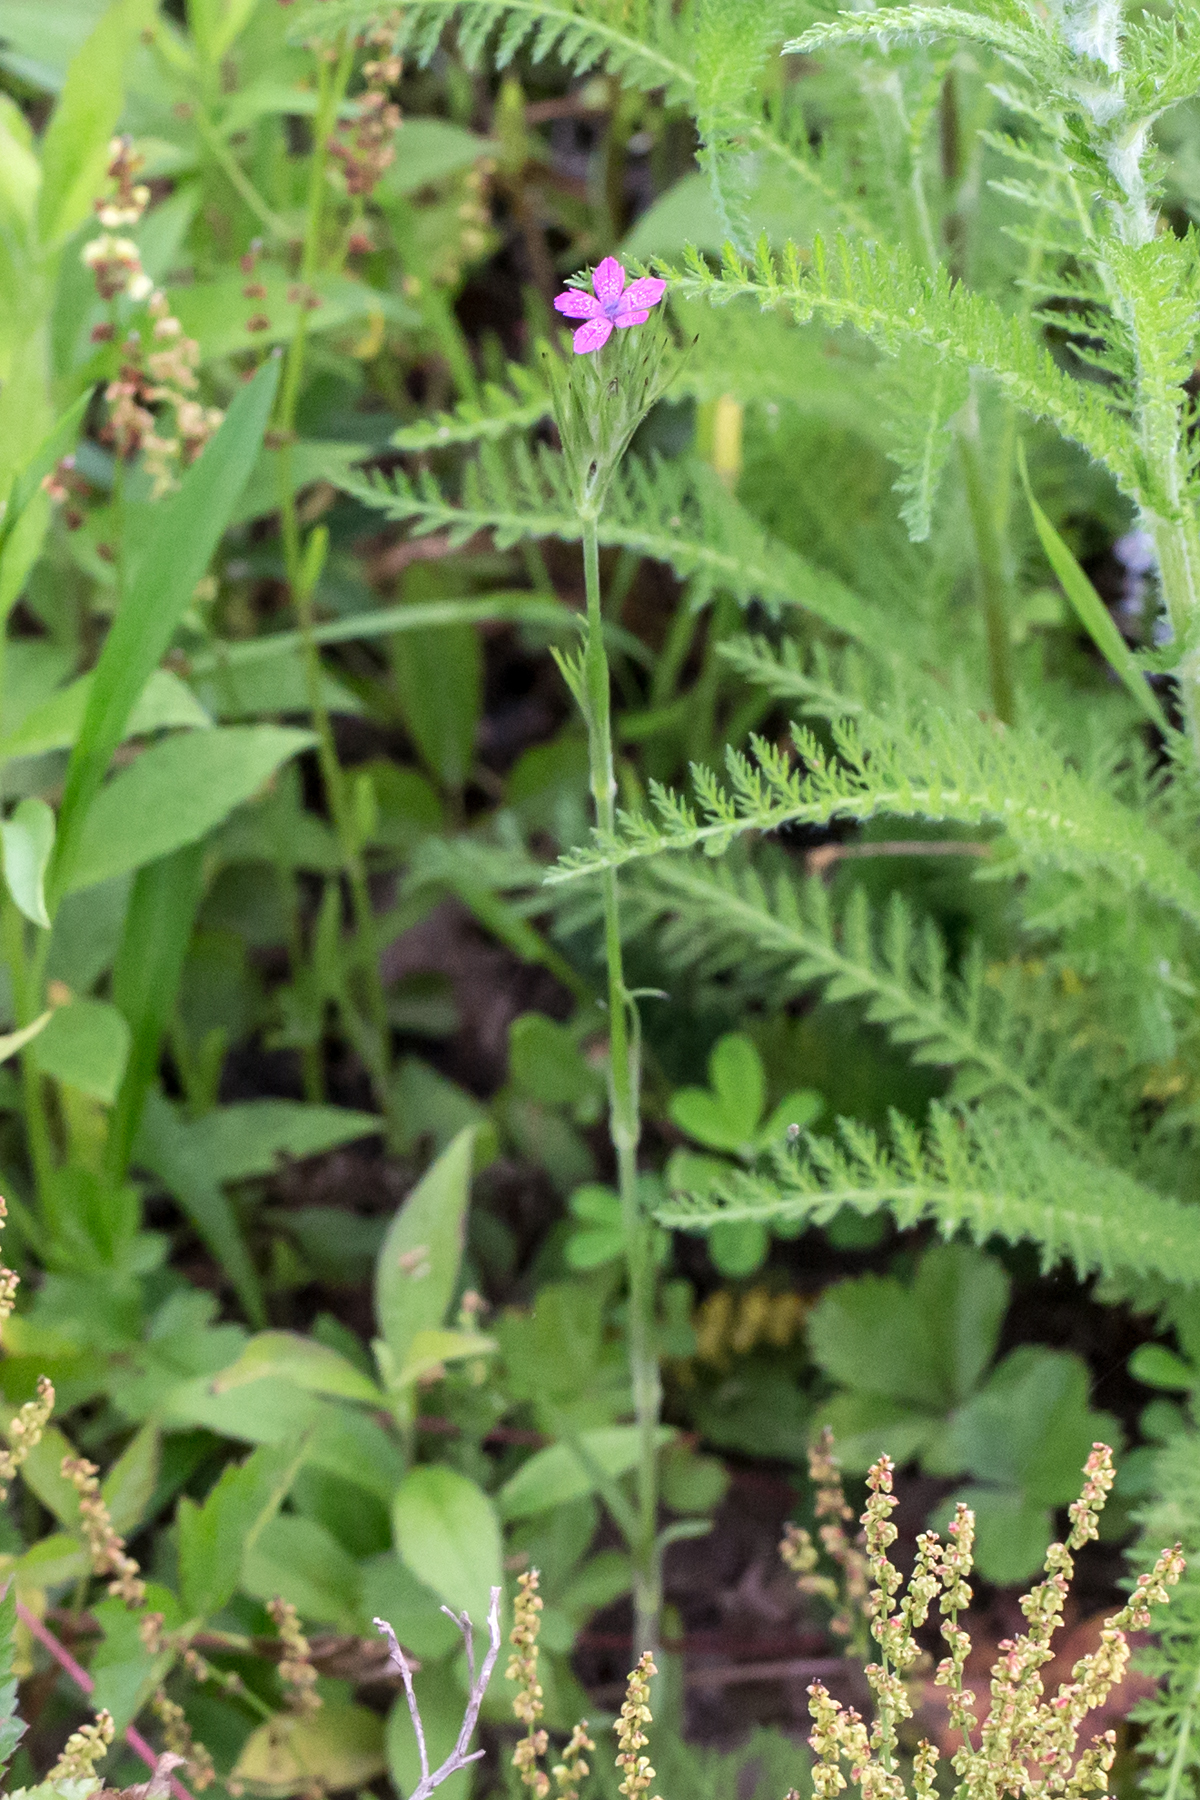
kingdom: Plantae
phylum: Tracheophyta
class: Magnoliopsida
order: Caryophyllales
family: Caryophyllaceae
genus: Dianthus
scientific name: Dianthus armeria
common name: Deptford pink
